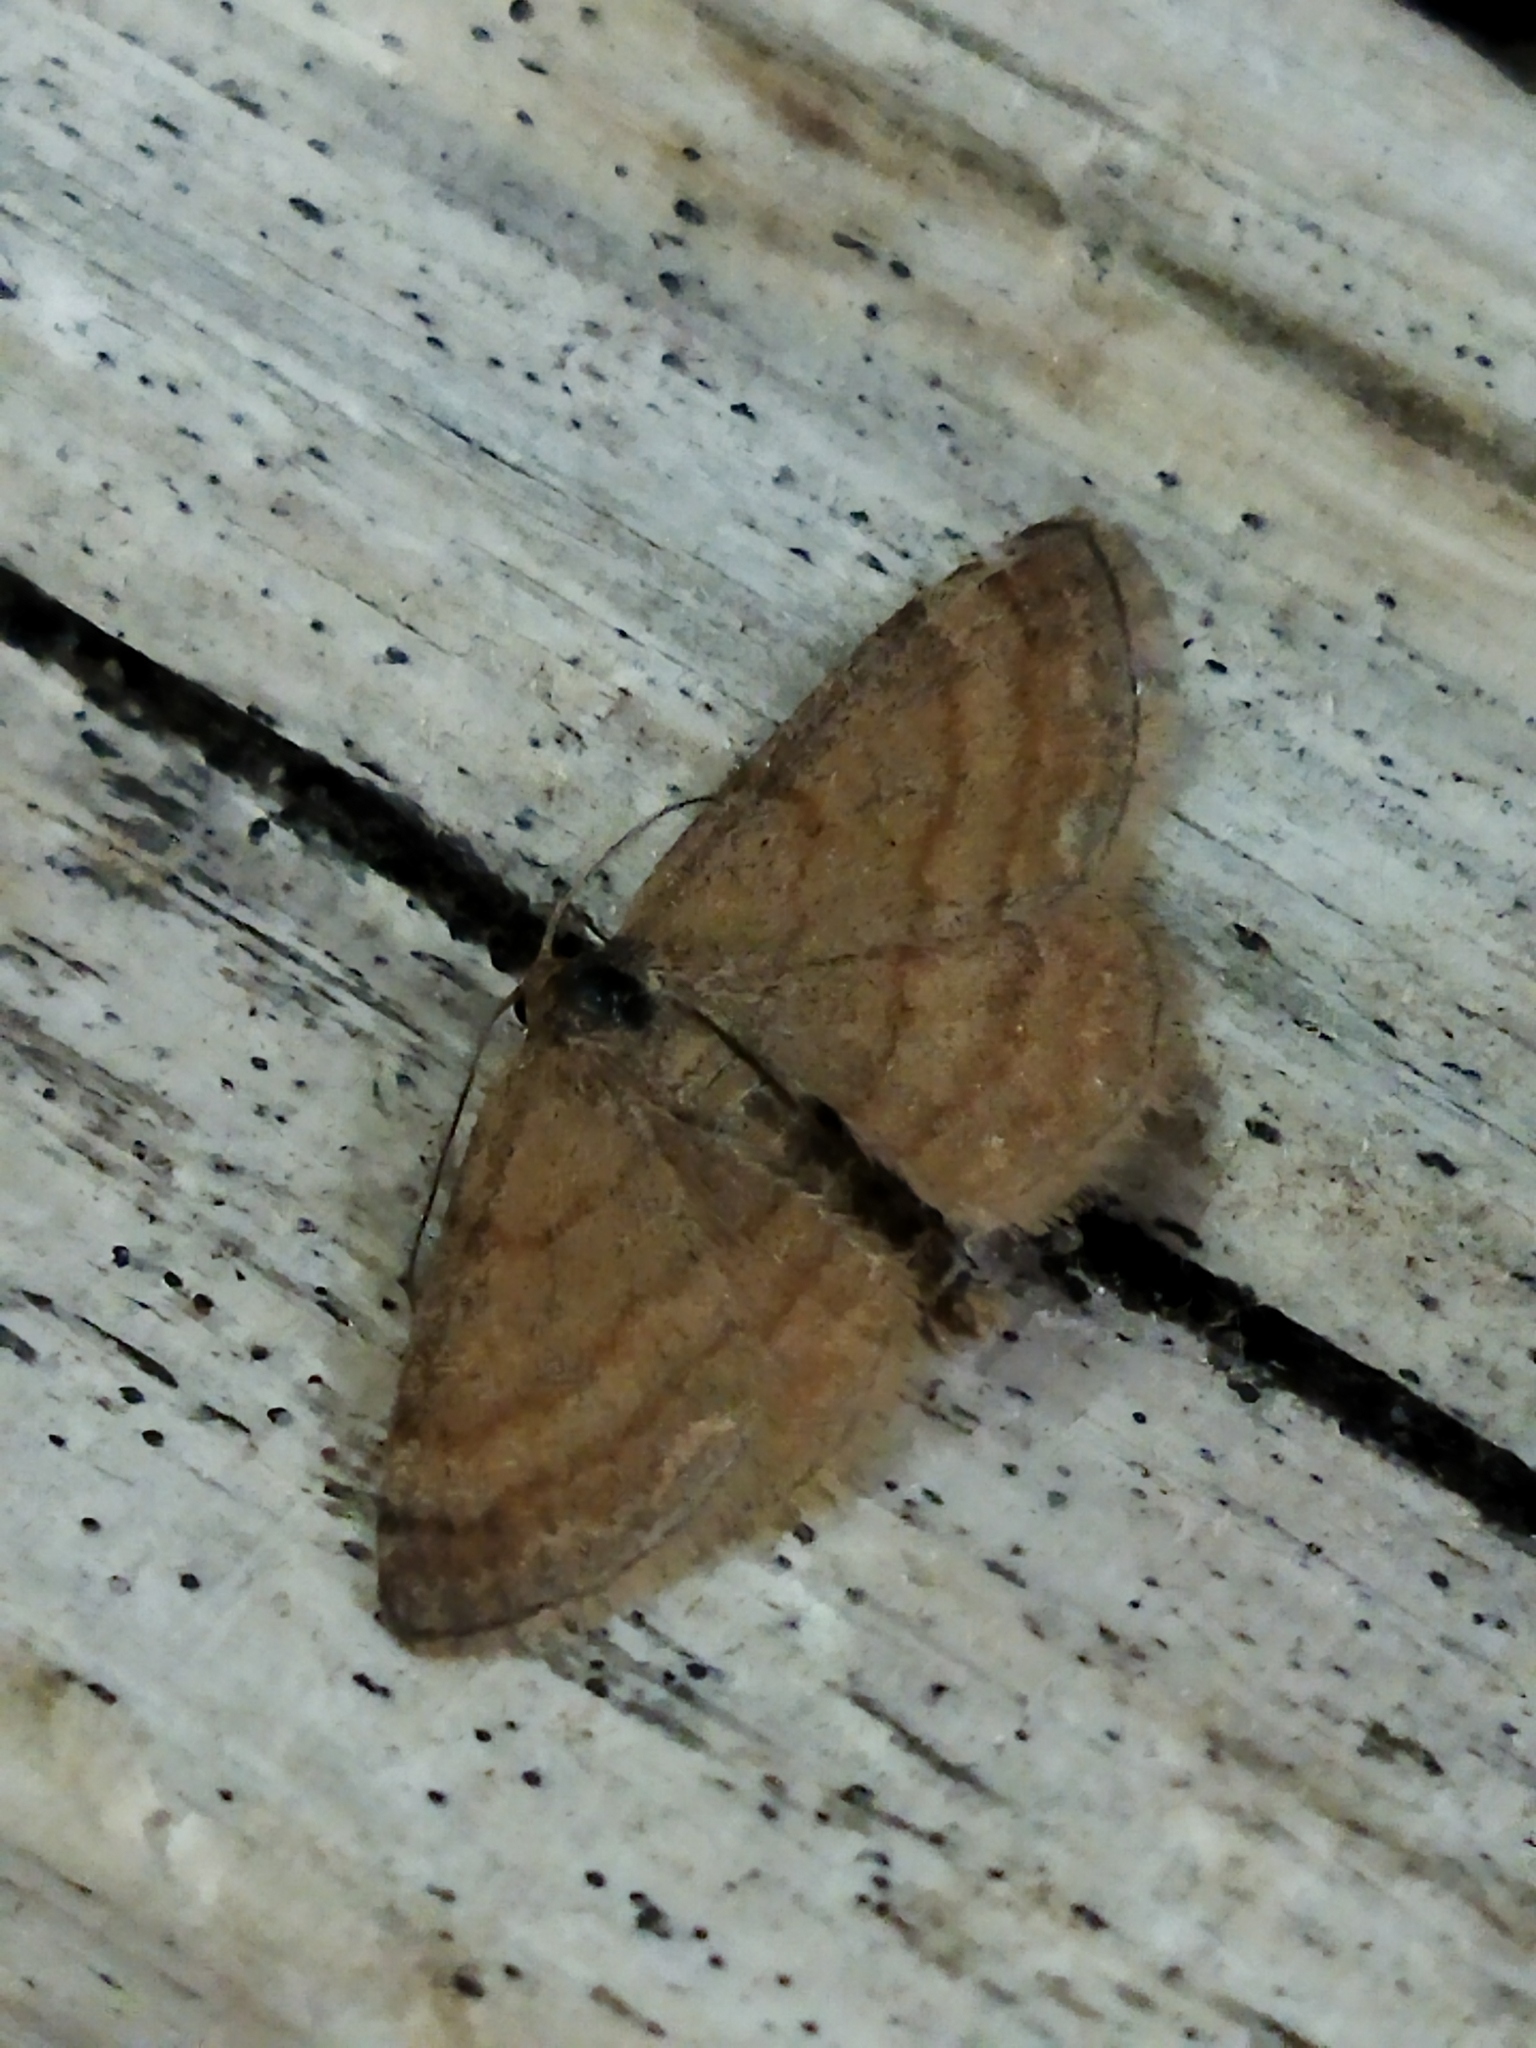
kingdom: Animalia
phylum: Arthropoda
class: Insecta
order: Lepidoptera
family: Geometridae
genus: Scopula
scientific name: Scopula rubiginata
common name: Tawny wave
